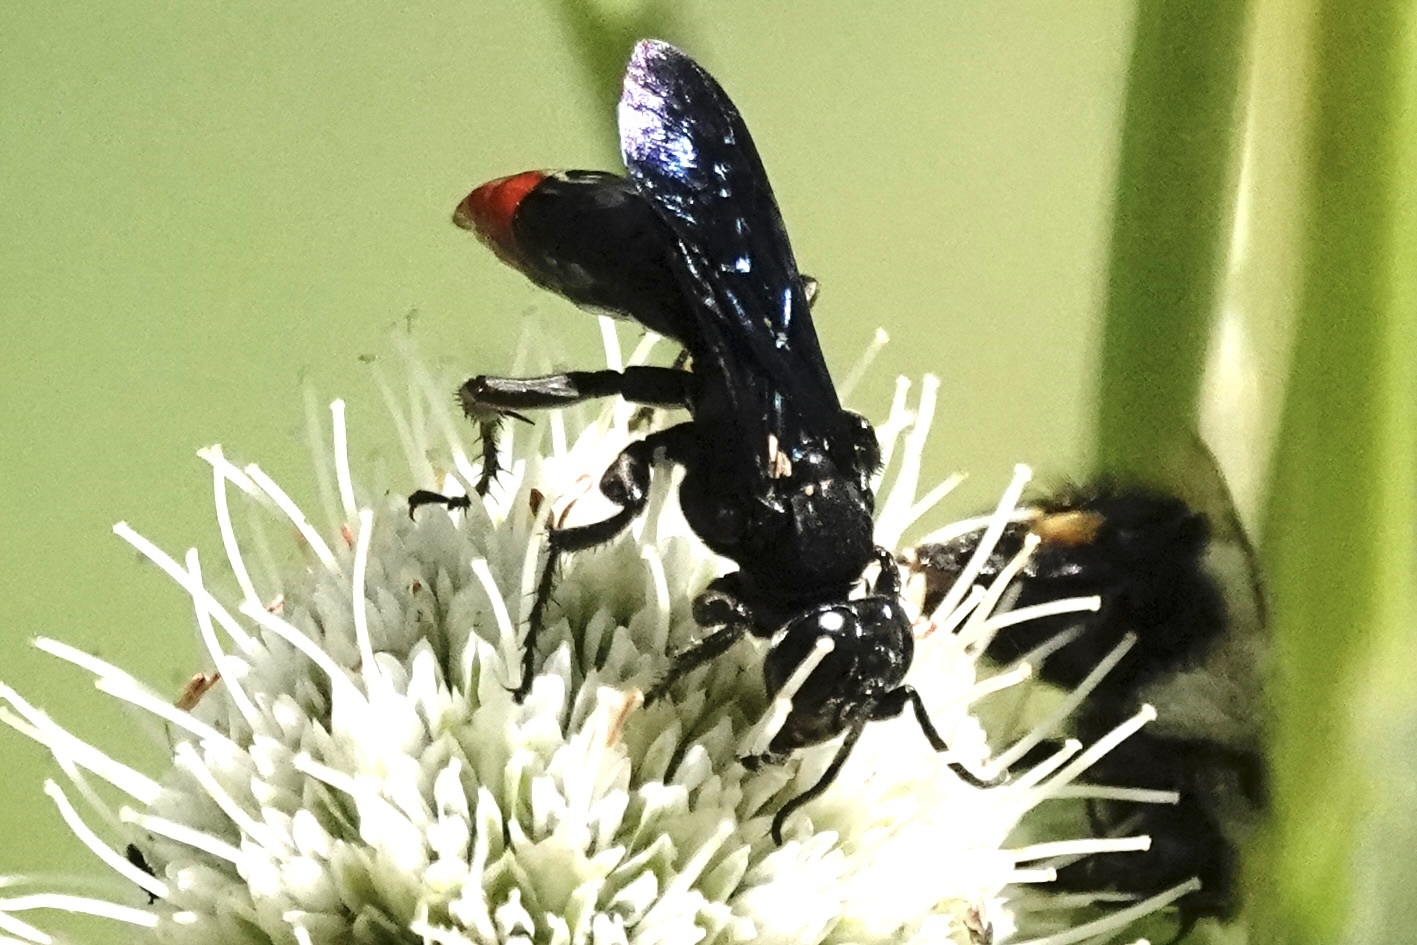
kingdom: Animalia
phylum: Arthropoda
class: Insecta
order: Hymenoptera
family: Crabronidae
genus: Larra
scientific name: Larra analis
